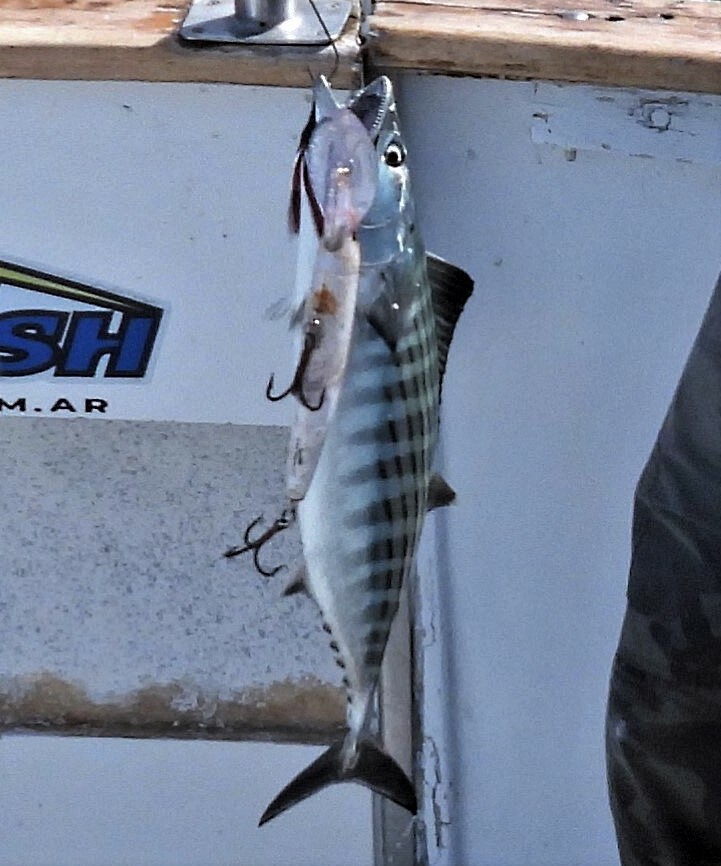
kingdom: Animalia
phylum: Chordata
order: Perciformes
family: Scombridae
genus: Sarda
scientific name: Sarda sarda
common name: Atlantic bonito
